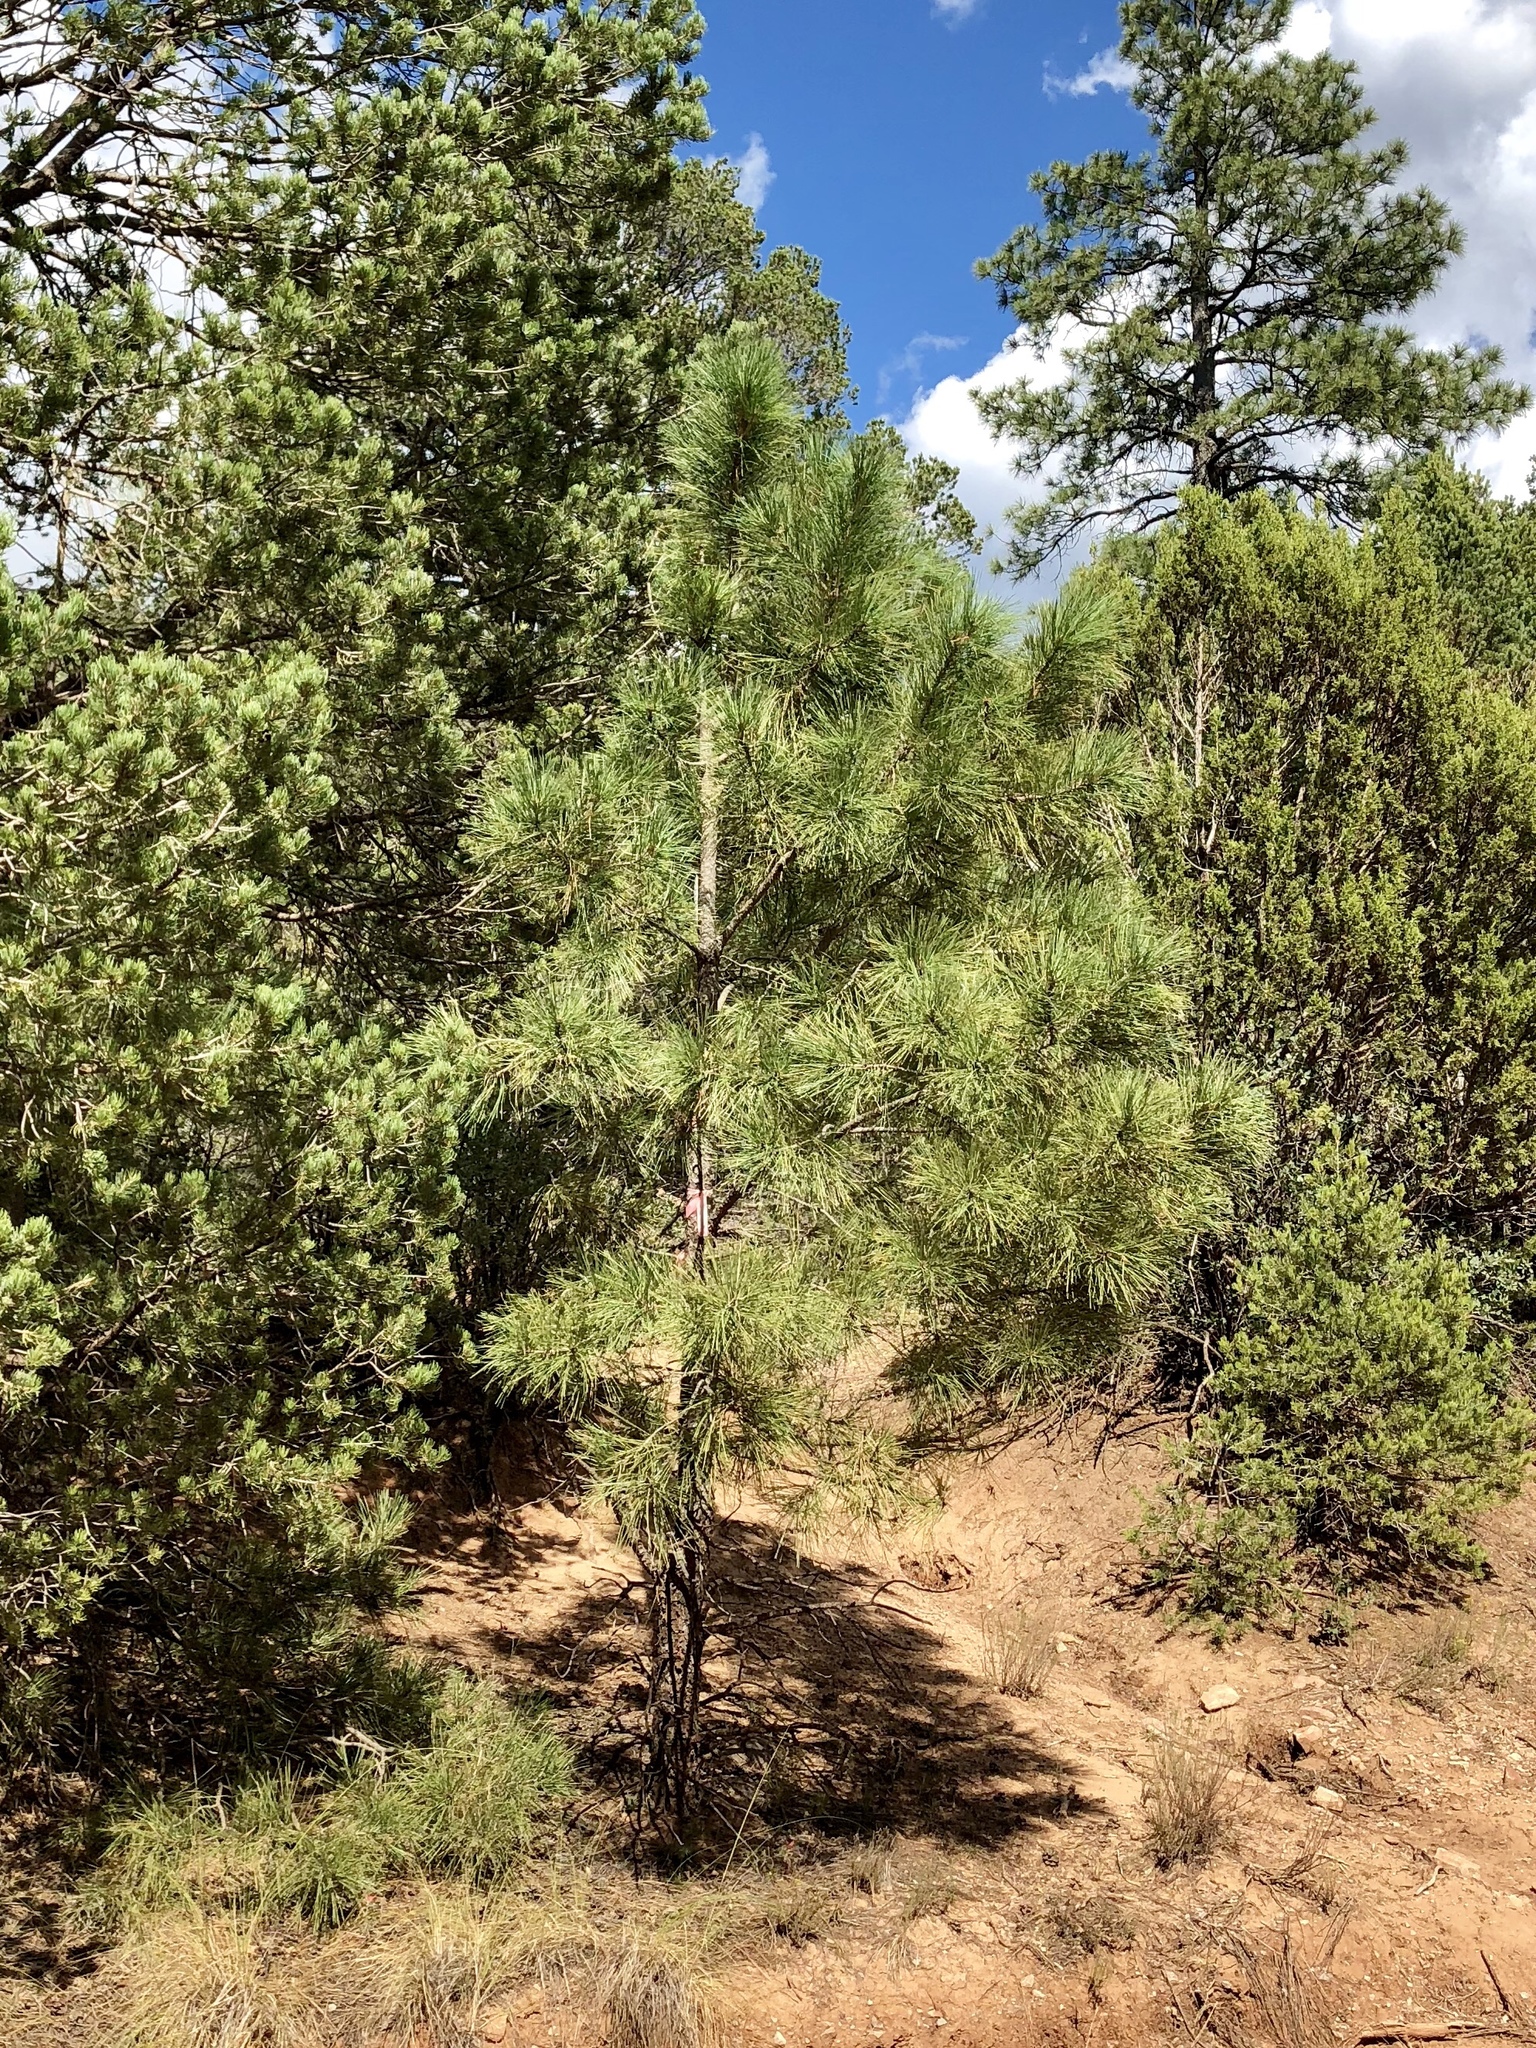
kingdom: Plantae
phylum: Tracheophyta
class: Pinopsida
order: Pinales
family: Pinaceae
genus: Pinus
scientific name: Pinus ponderosa
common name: Western yellow-pine
